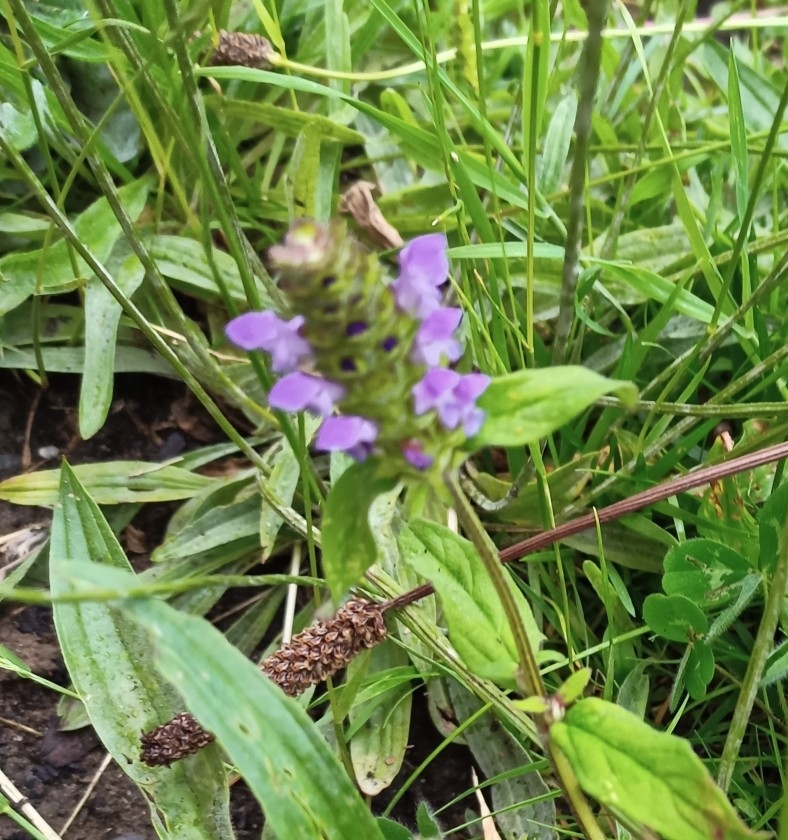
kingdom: Plantae
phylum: Tracheophyta
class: Magnoliopsida
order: Lamiales
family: Lamiaceae
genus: Prunella
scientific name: Prunella vulgaris
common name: Heal-all
